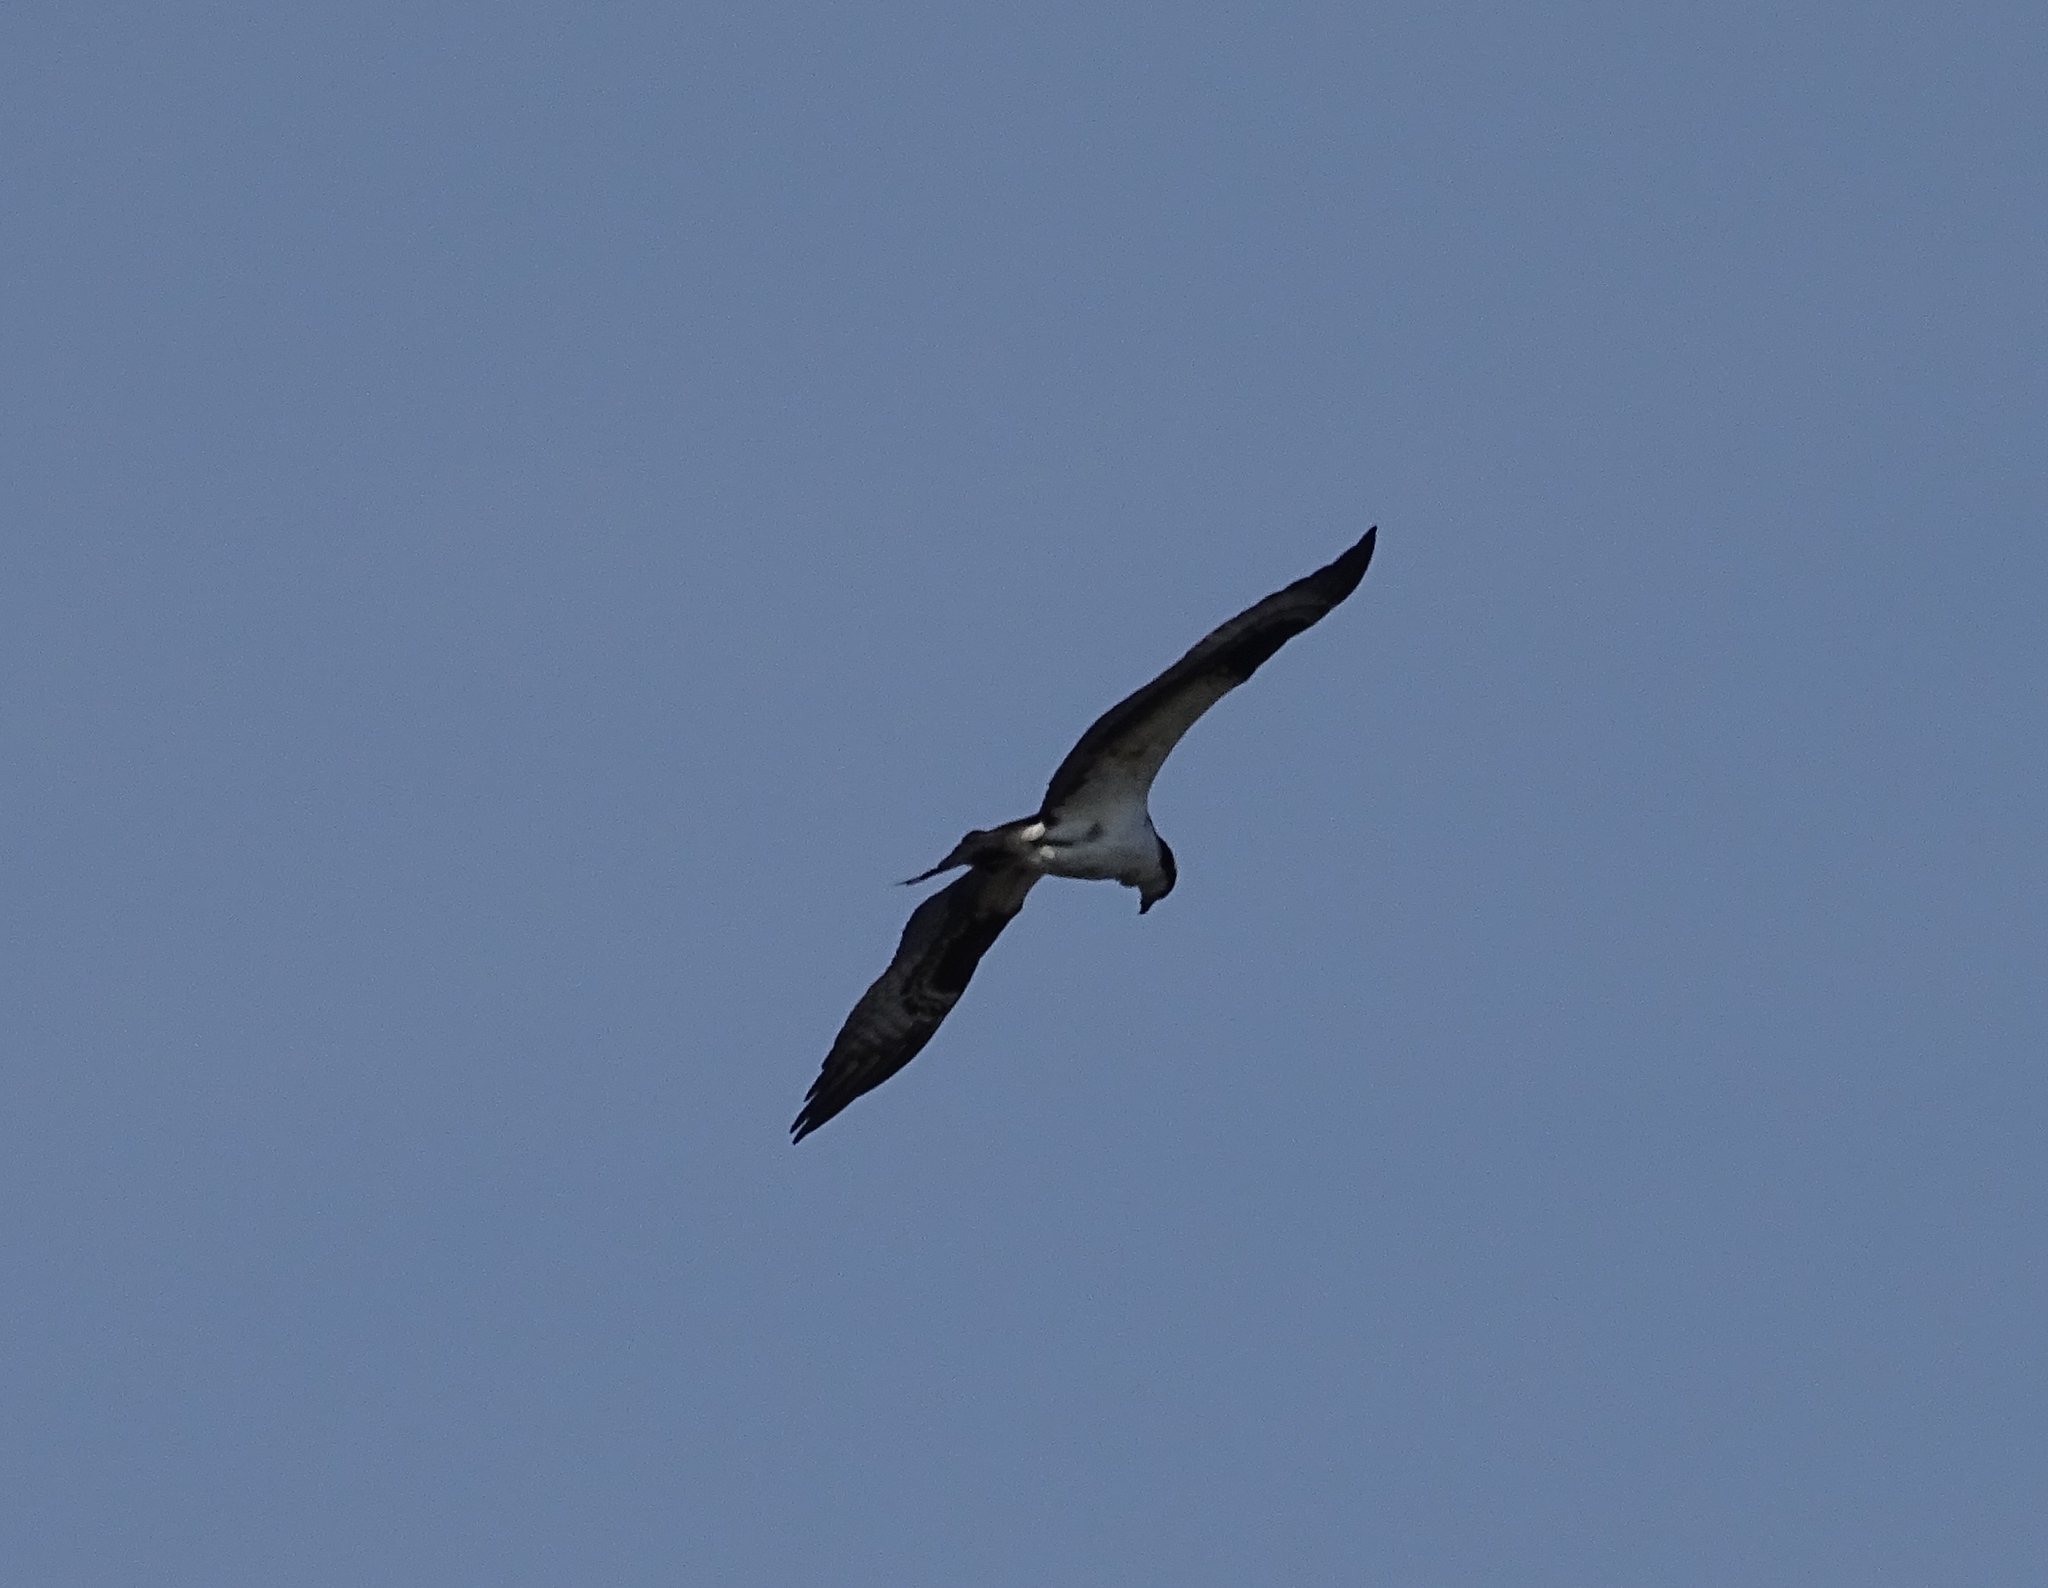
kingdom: Animalia
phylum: Chordata
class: Aves
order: Accipitriformes
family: Pandionidae
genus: Pandion
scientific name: Pandion haliaetus
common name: Osprey
